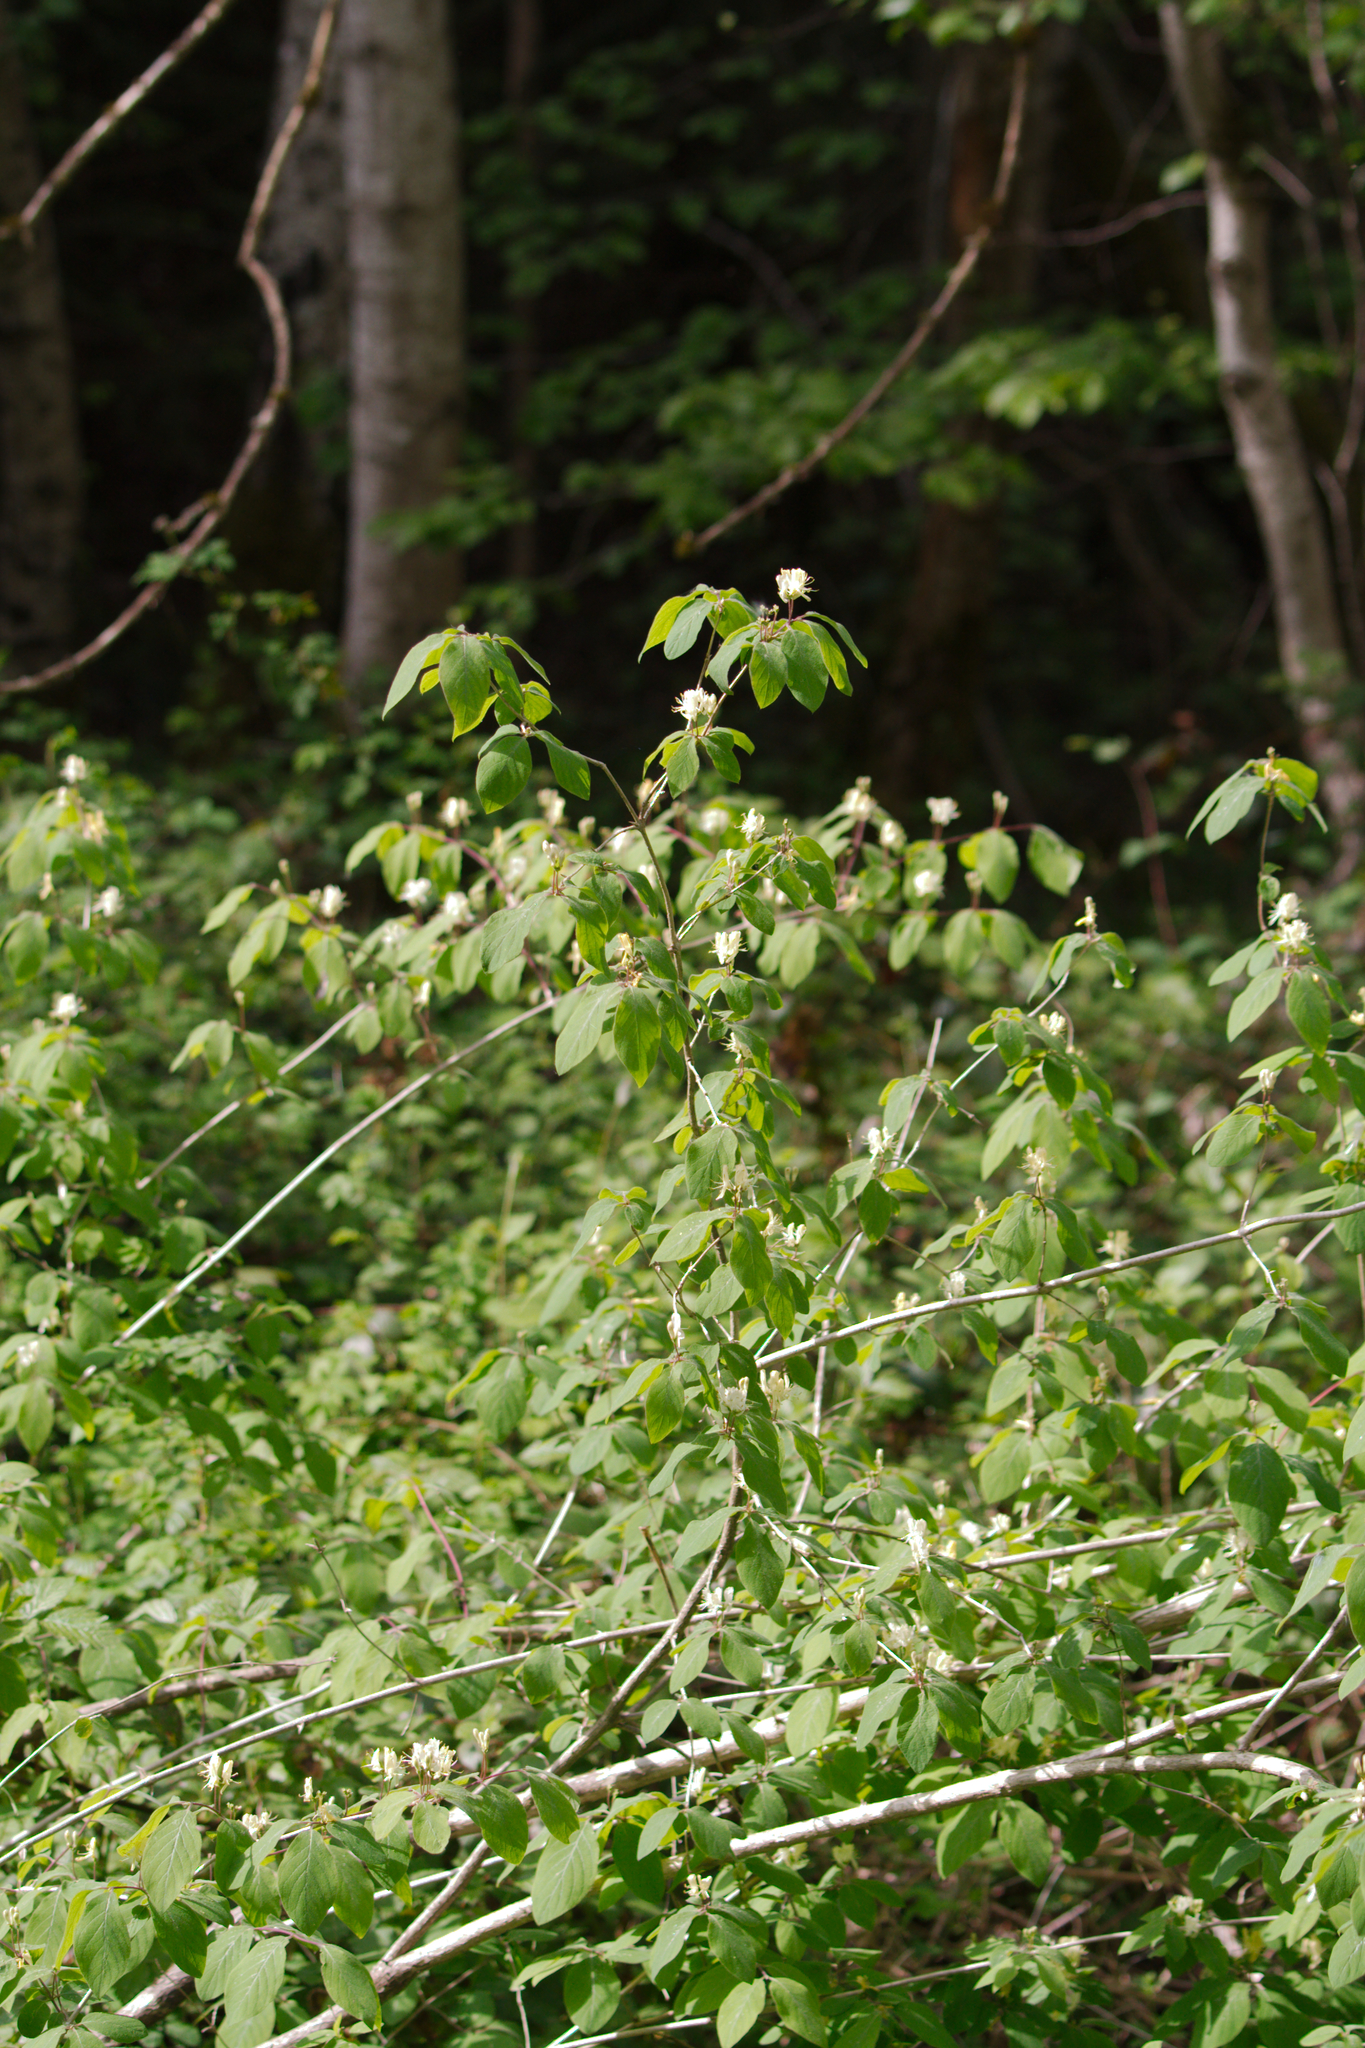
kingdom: Plantae
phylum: Tracheophyta
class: Magnoliopsida
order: Dipsacales
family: Caprifoliaceae
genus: Lonicera
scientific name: Lonicera xylosteum
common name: Fly honeysuckle
